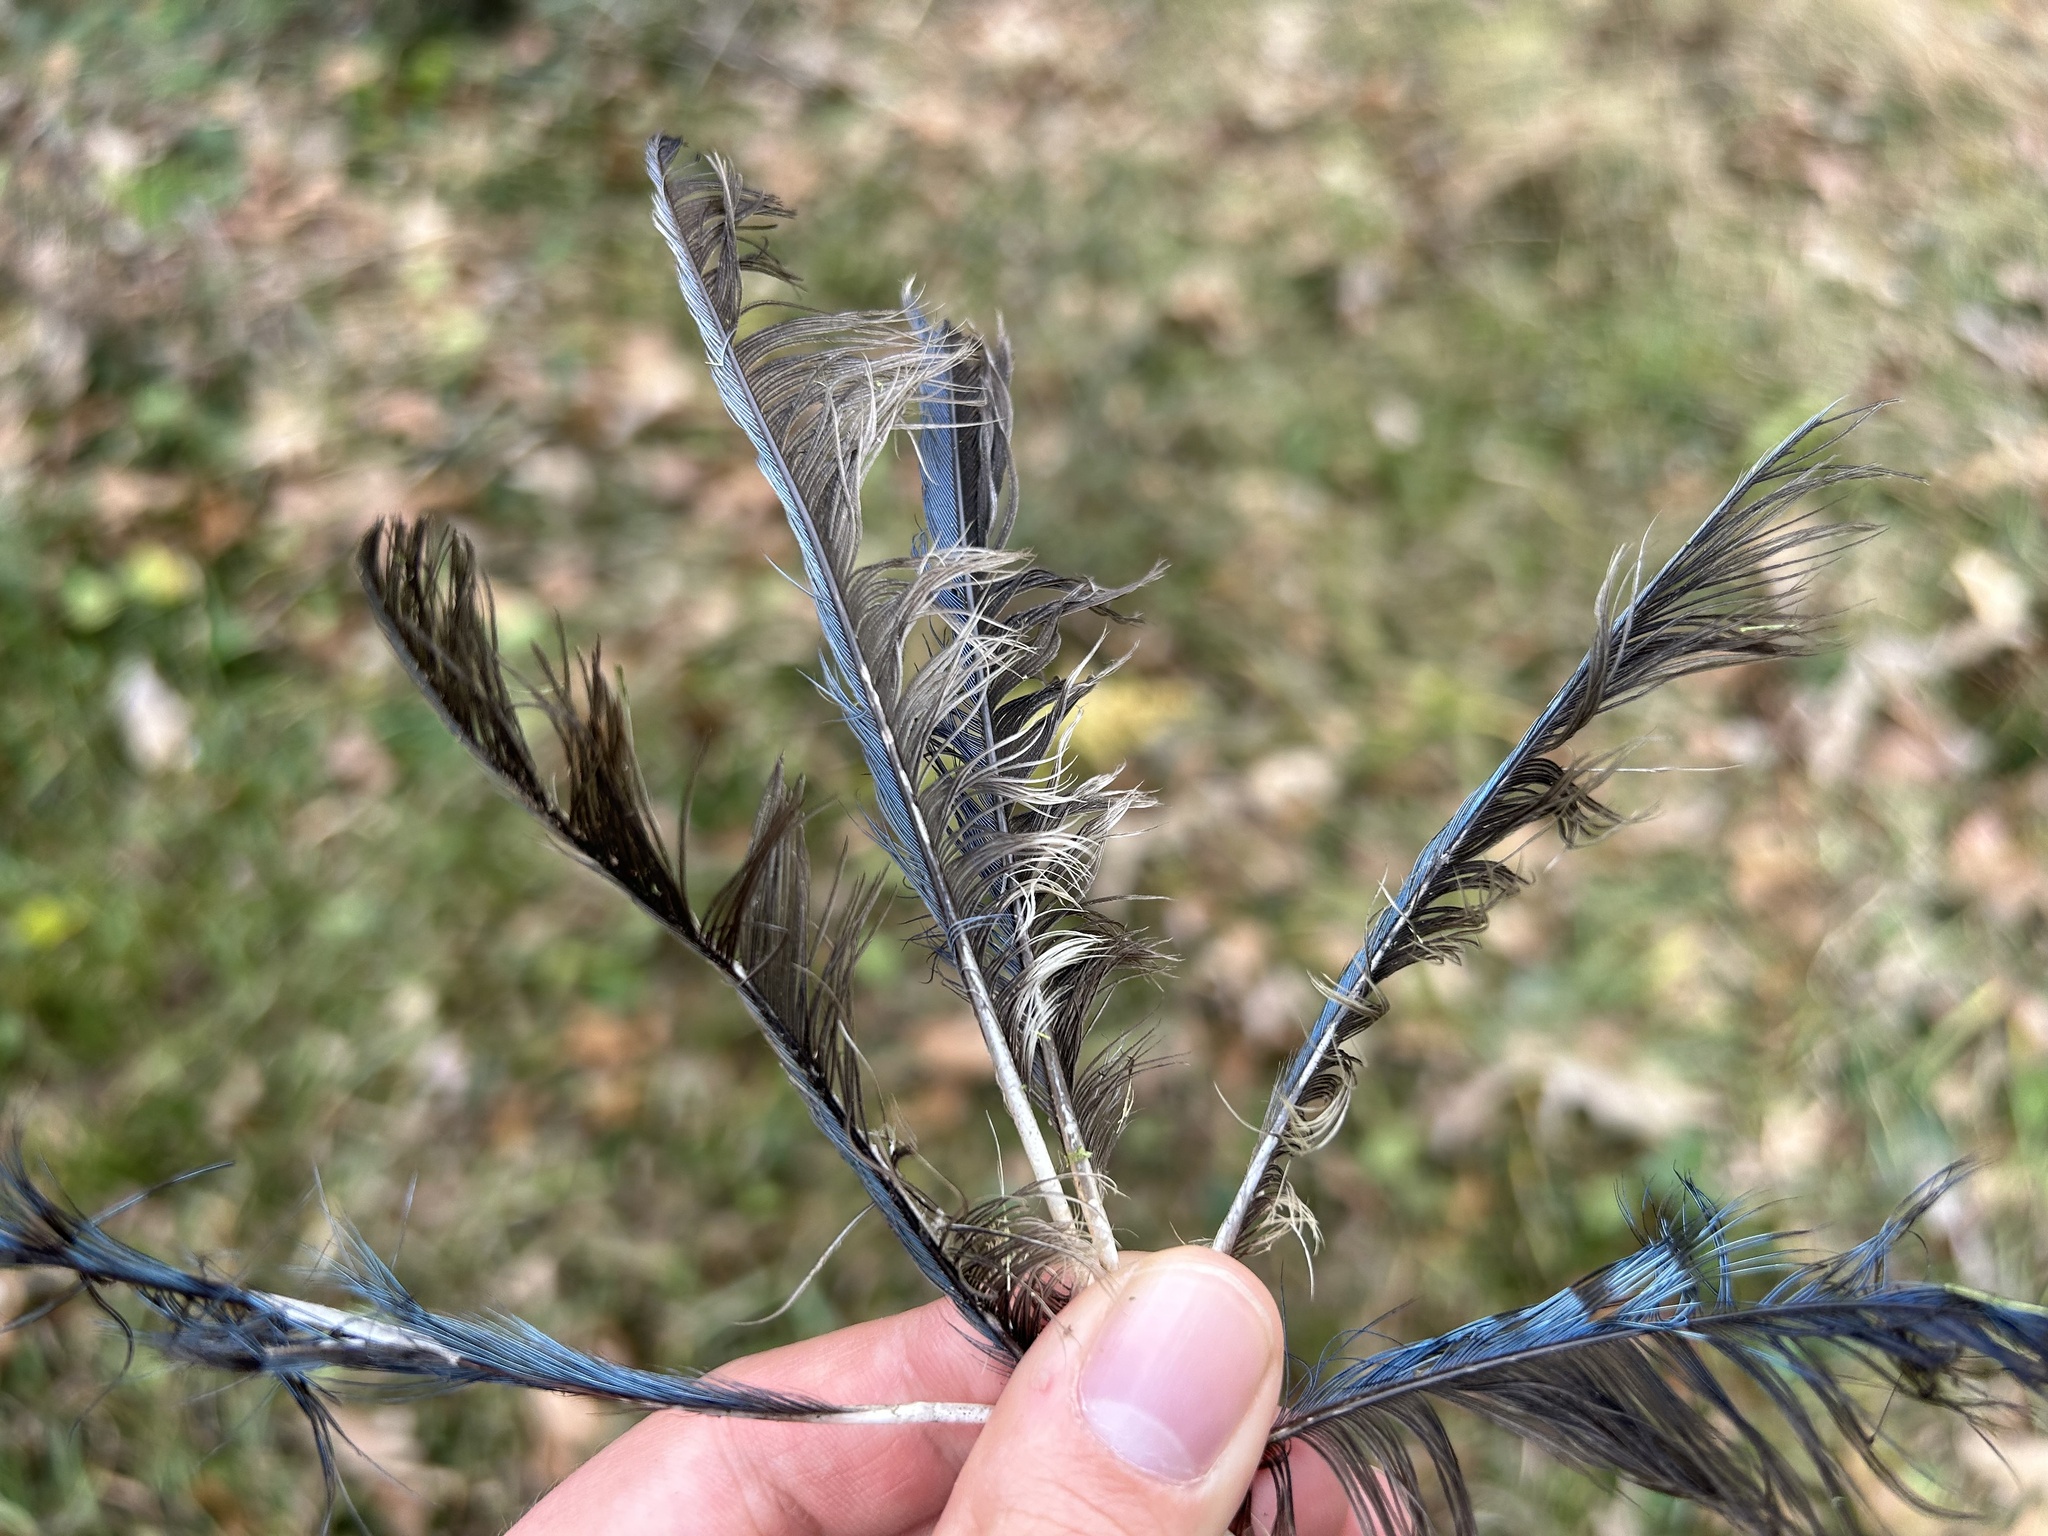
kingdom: Animalia
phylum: Chordata
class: Aves
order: Passeriformes
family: Corvidae
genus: Cyanocitta
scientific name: Cyanocitta cristata
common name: Blue jay
